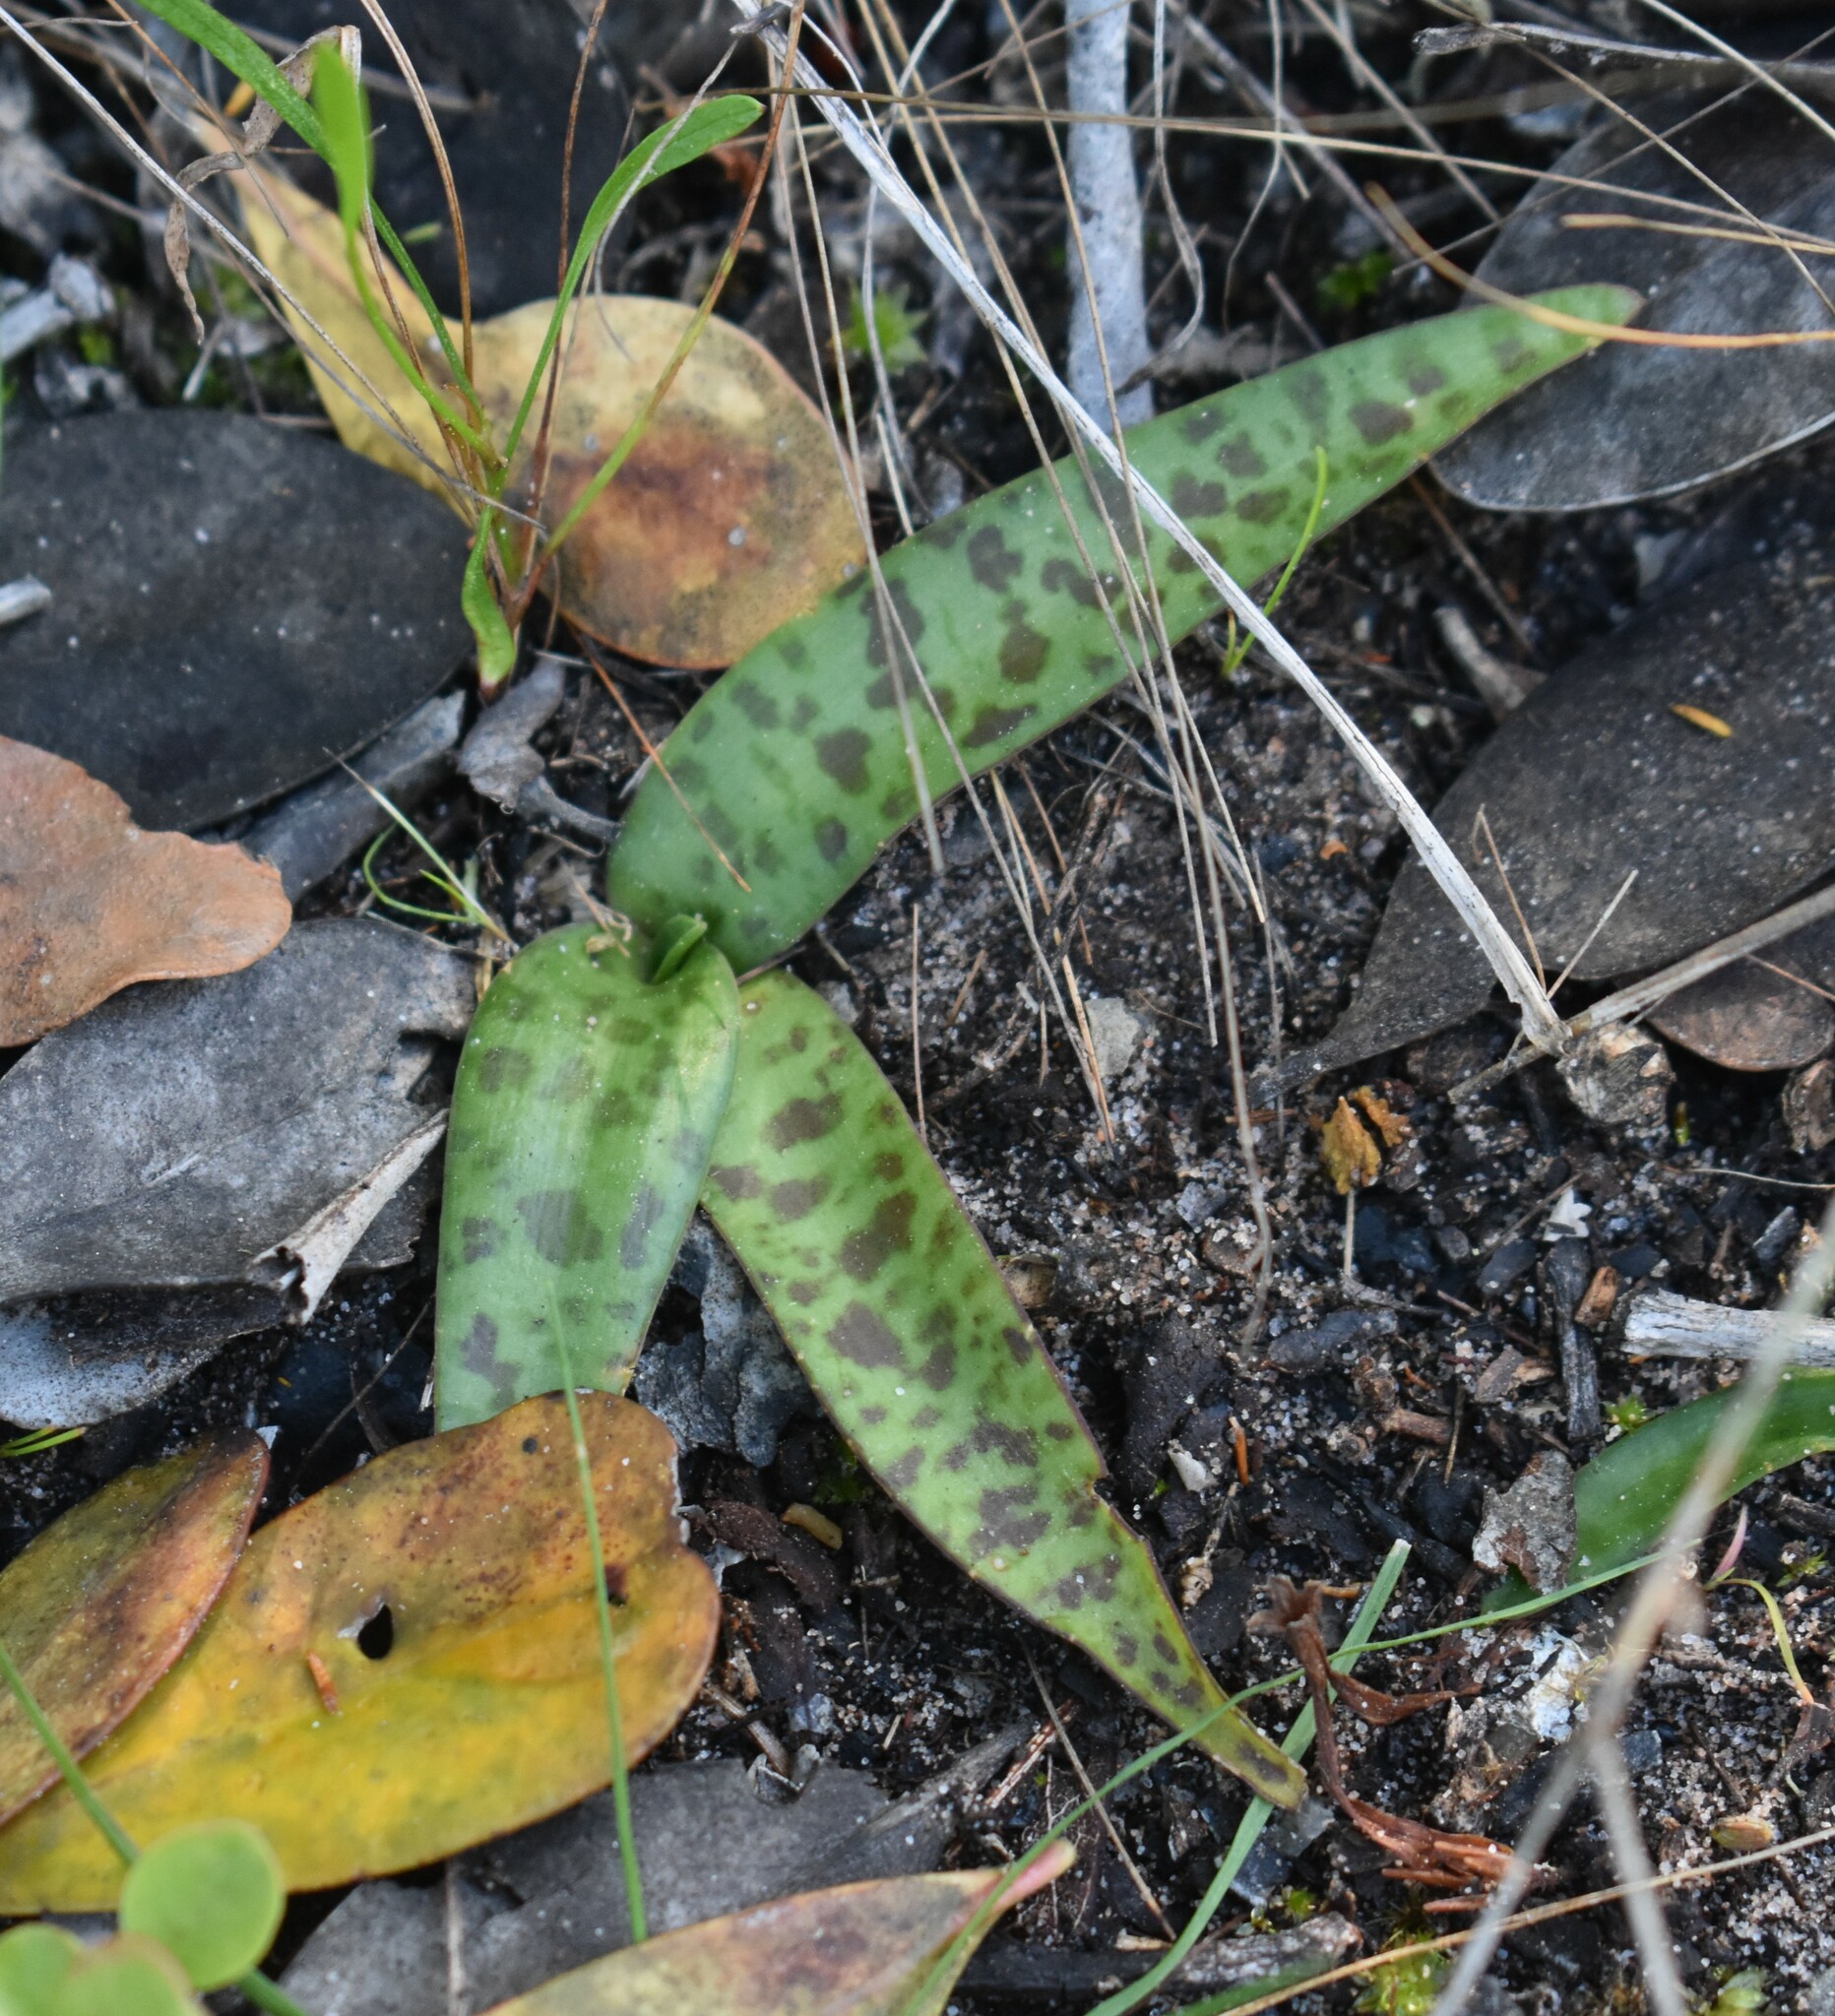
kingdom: Plantae
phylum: Tracheophyta
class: Liliopsida
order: Asparagales
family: Asparagaceae
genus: Ledebouria
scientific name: Ledebouria revoluta
